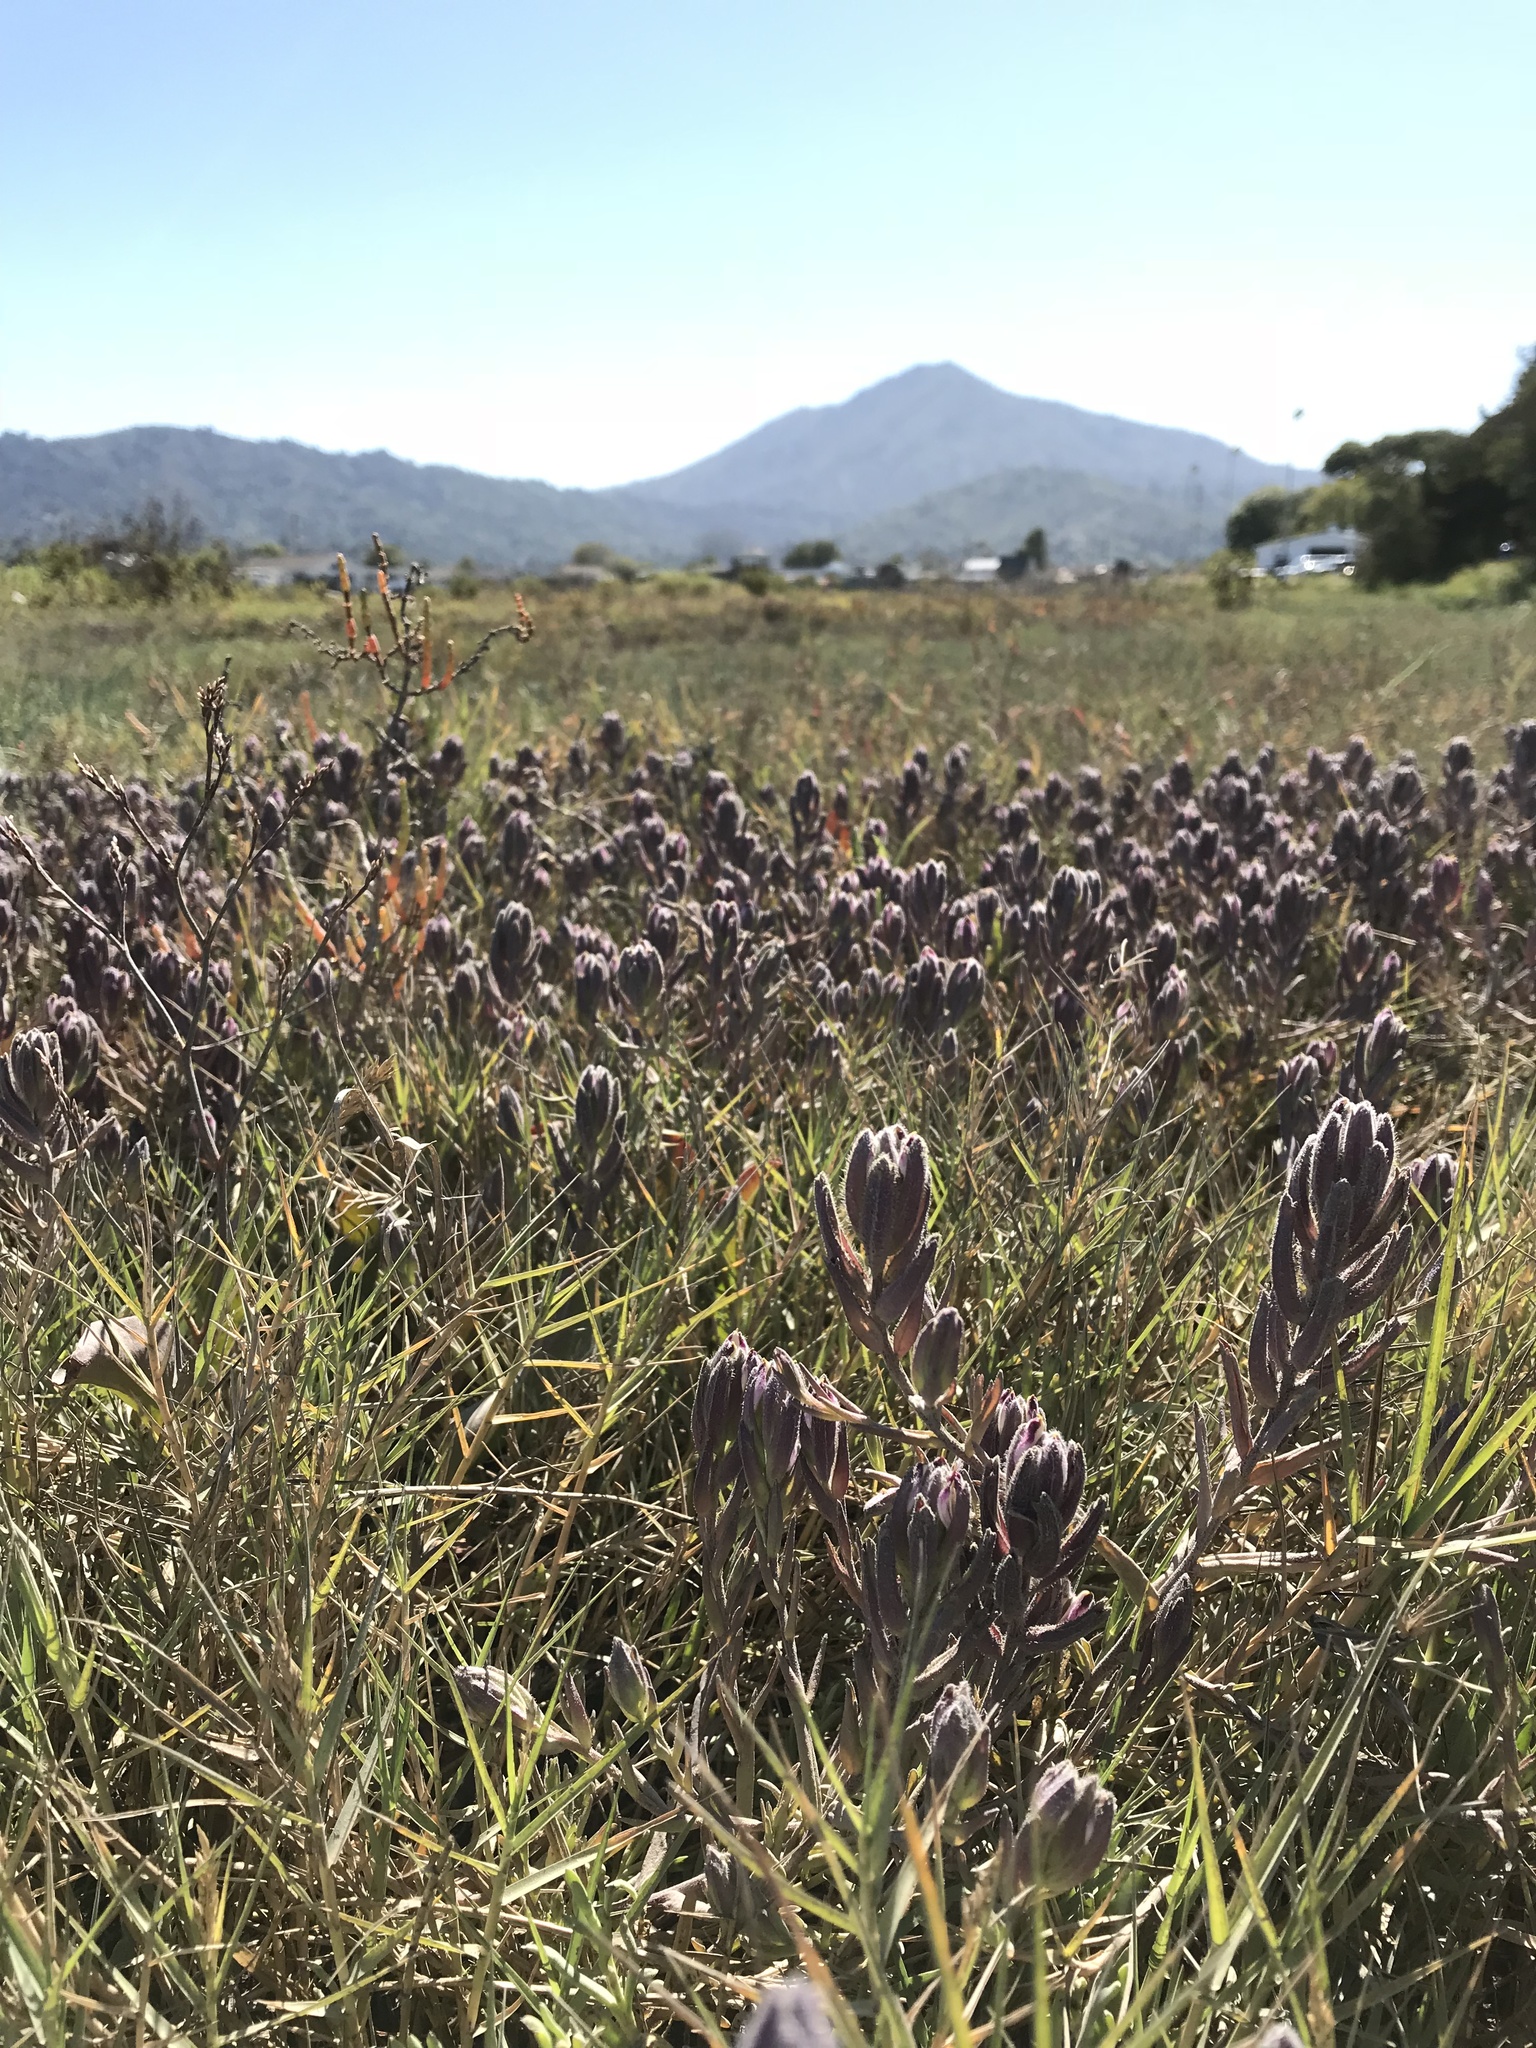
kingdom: Plantae
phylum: Tracheophyta
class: Magnoliopsida
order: Lamiales
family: Orobanchaceae
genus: Chloropyron
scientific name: Chloropyron maritimum
